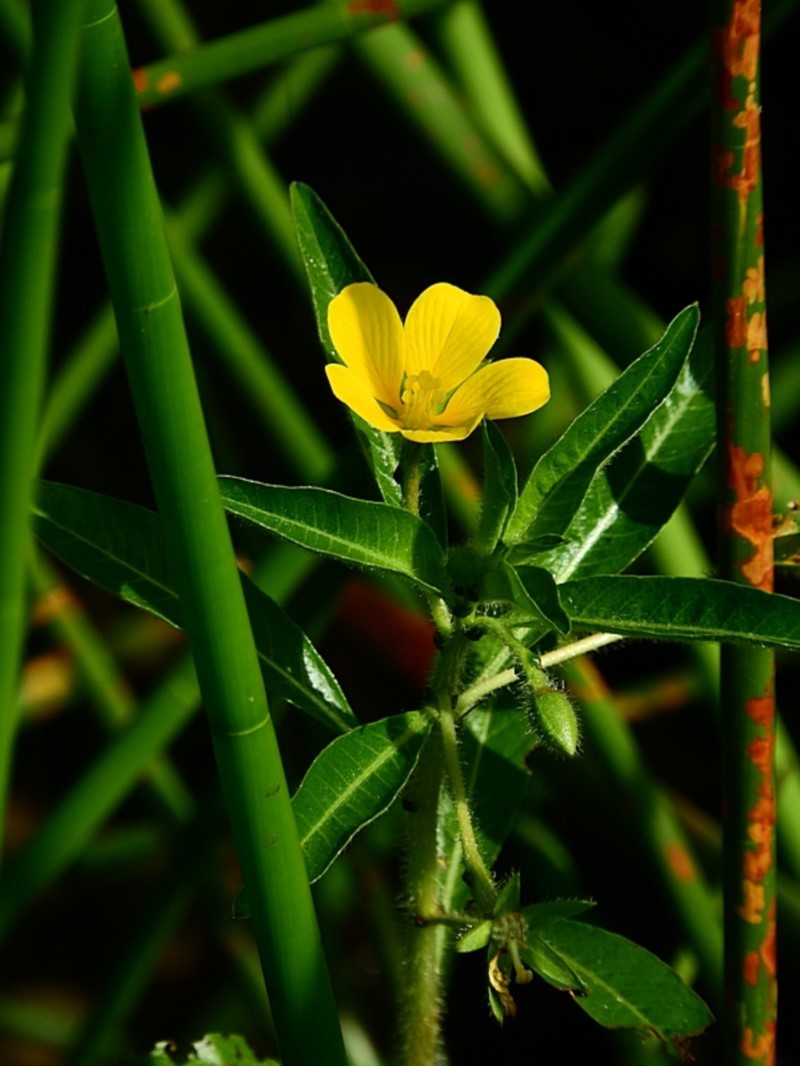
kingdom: Plantae
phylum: Tracheophyta
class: Magnoliopsida
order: Myrtales
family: Onagraceae
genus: Ludwigia
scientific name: Ludwigia peploides
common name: Floating primrose-willow
